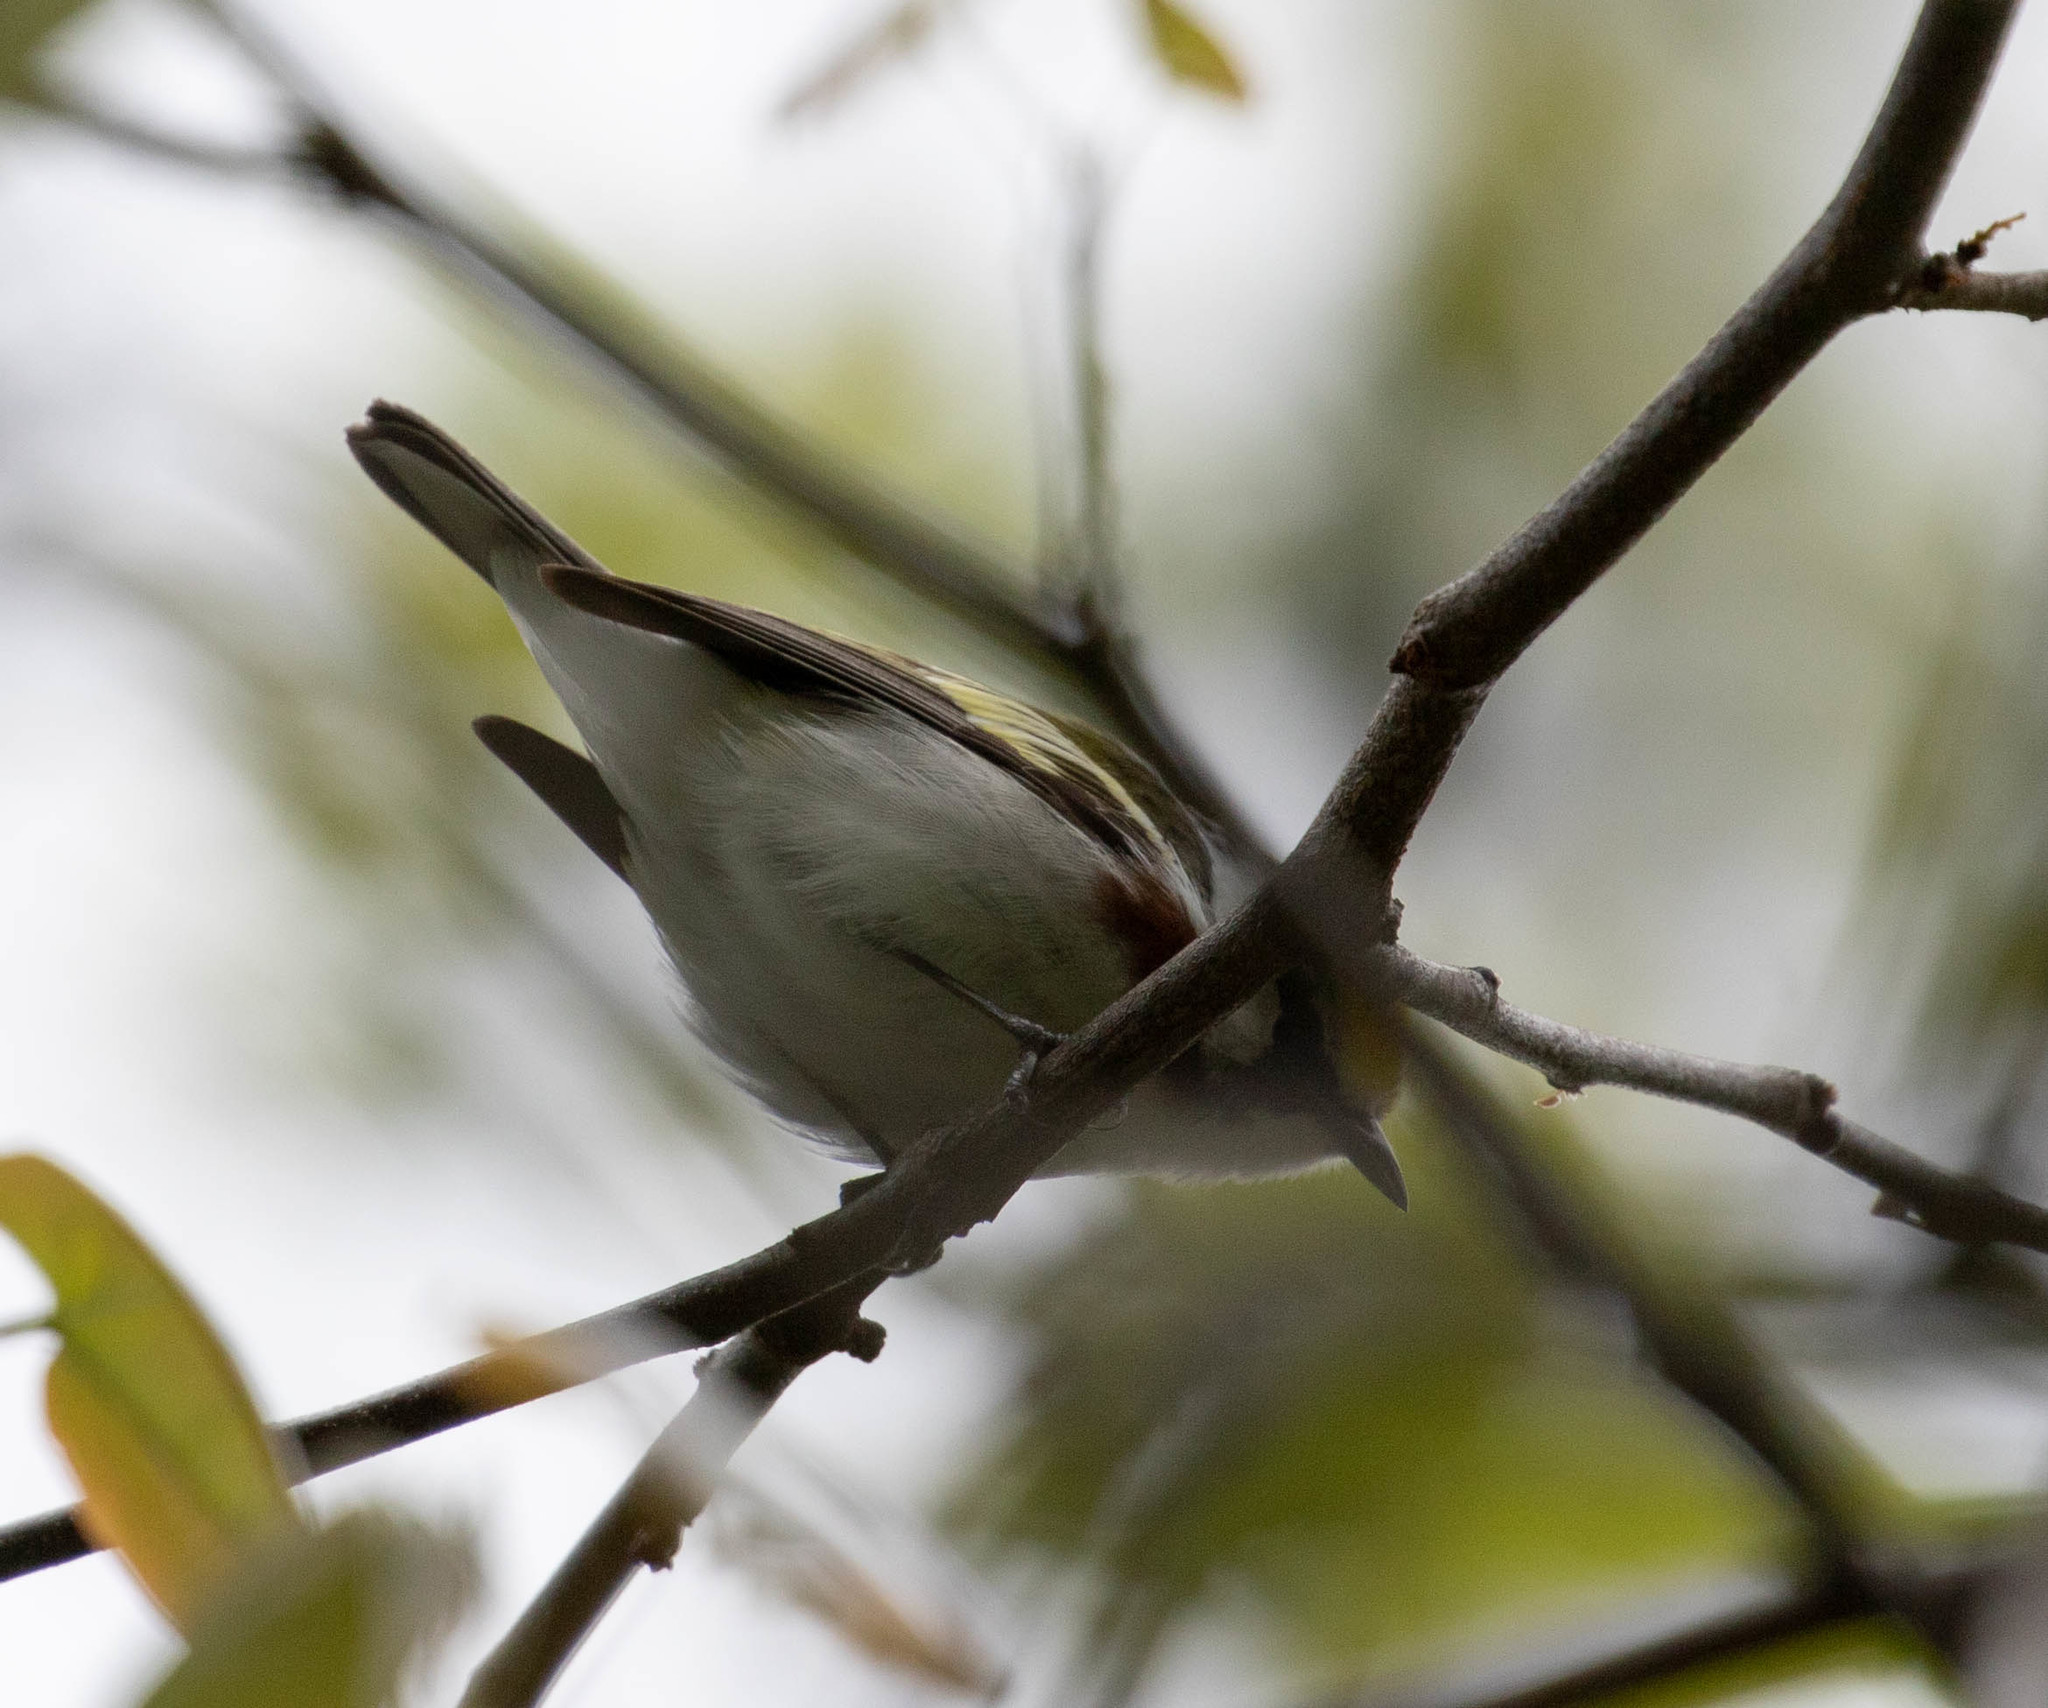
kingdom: Animalia
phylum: Chordata
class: Aves
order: Passeriformes
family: Parulidae
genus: Setophaga
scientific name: Setophaga pensylvanica
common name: Chestnut-sided warbler
